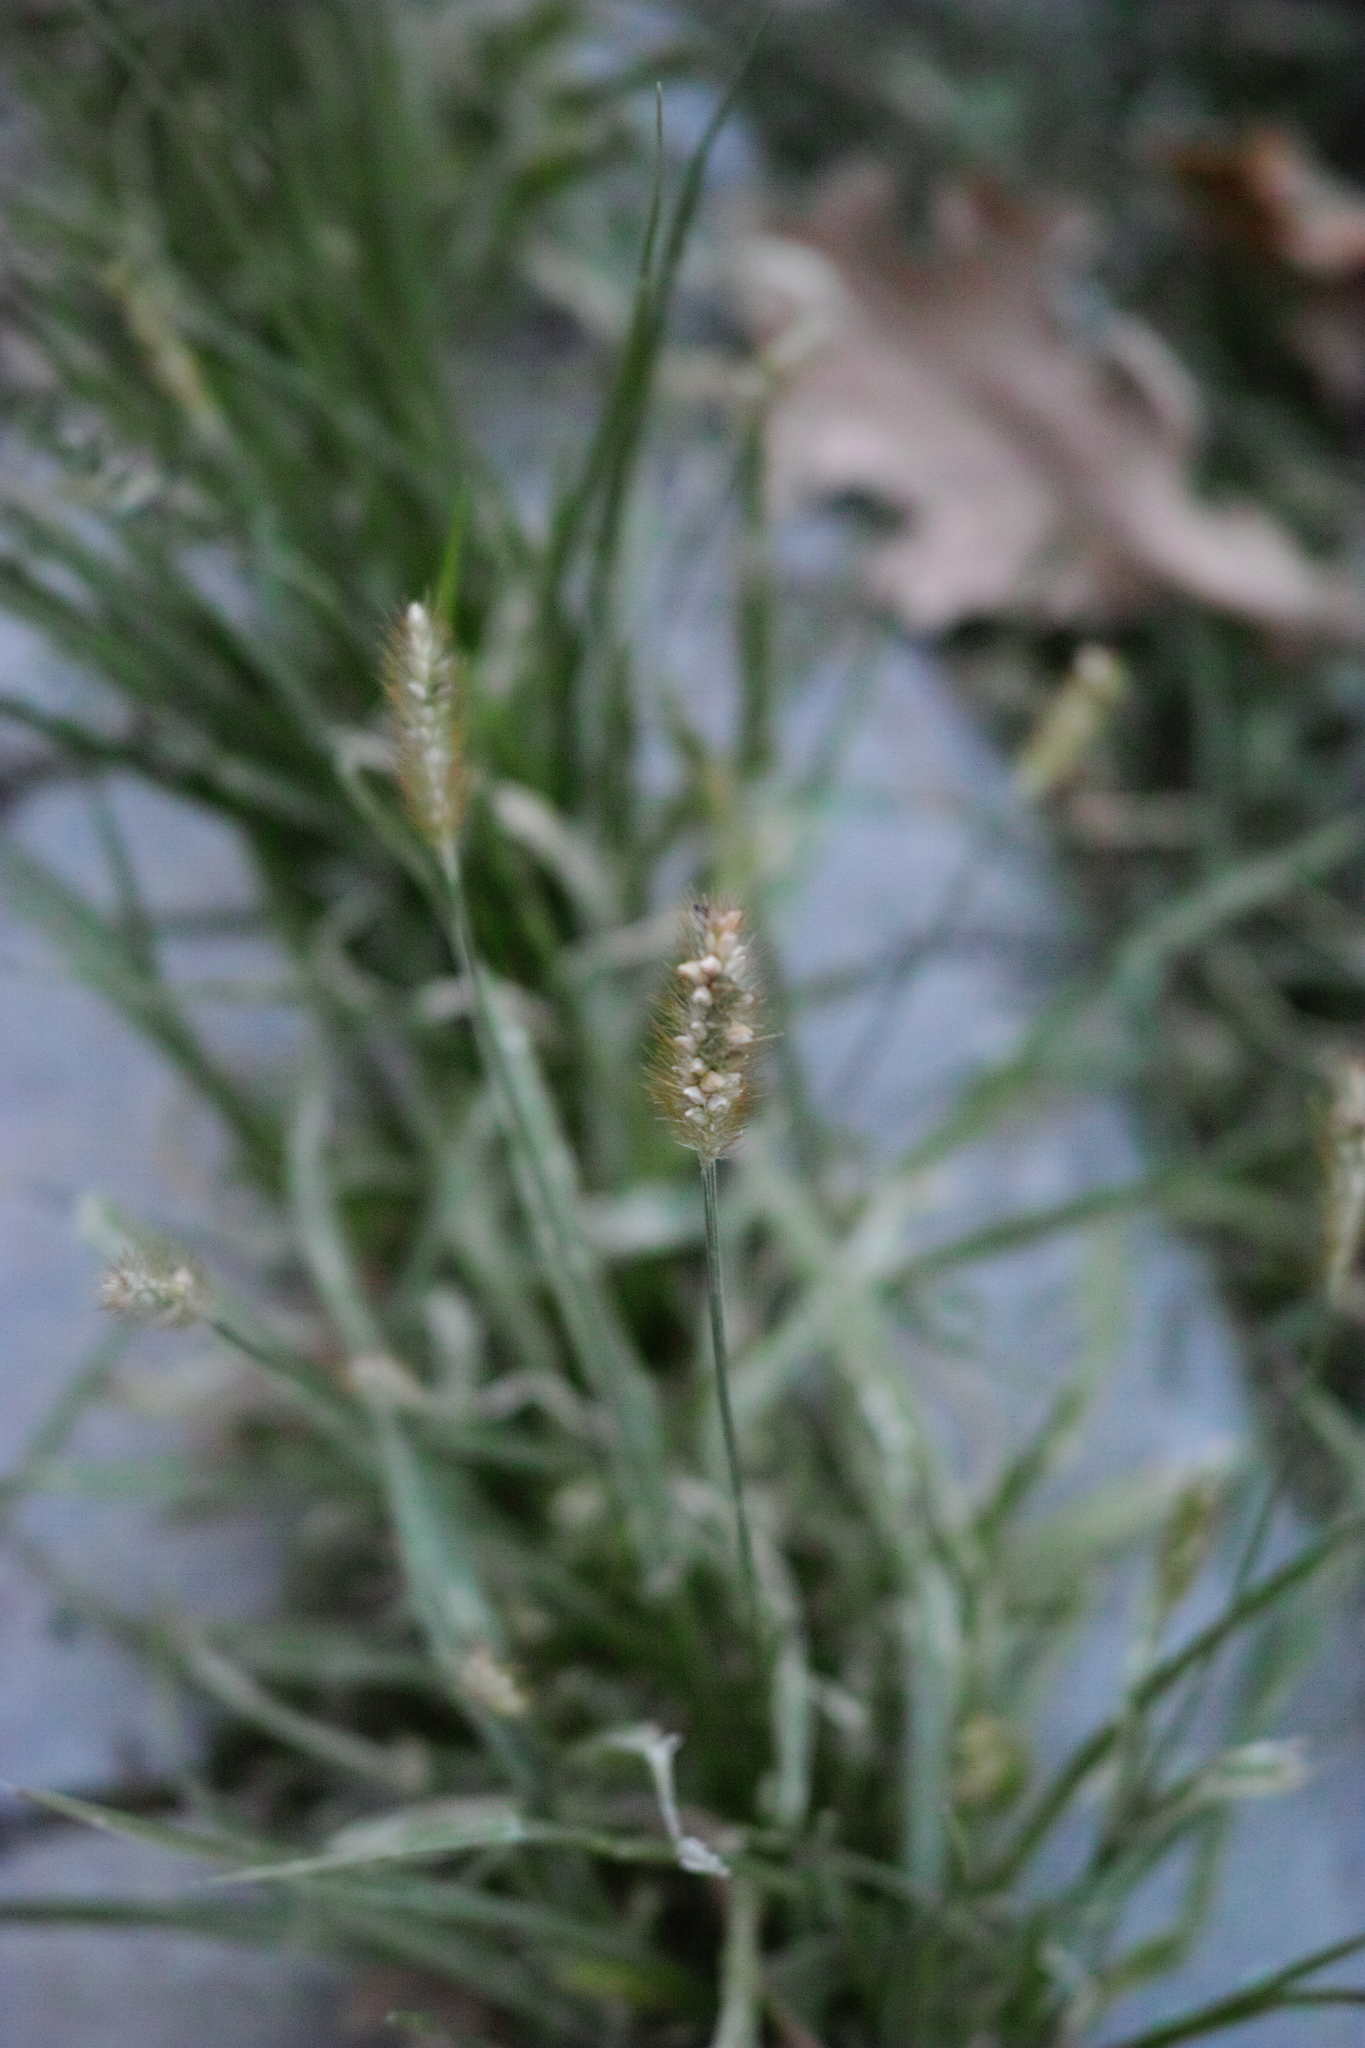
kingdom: Plantae
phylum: Tracheophyta
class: Liliopsida
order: Poales
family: Poaceae
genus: Setaria
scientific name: Setaria pumila
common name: Yellow bristle-grass
